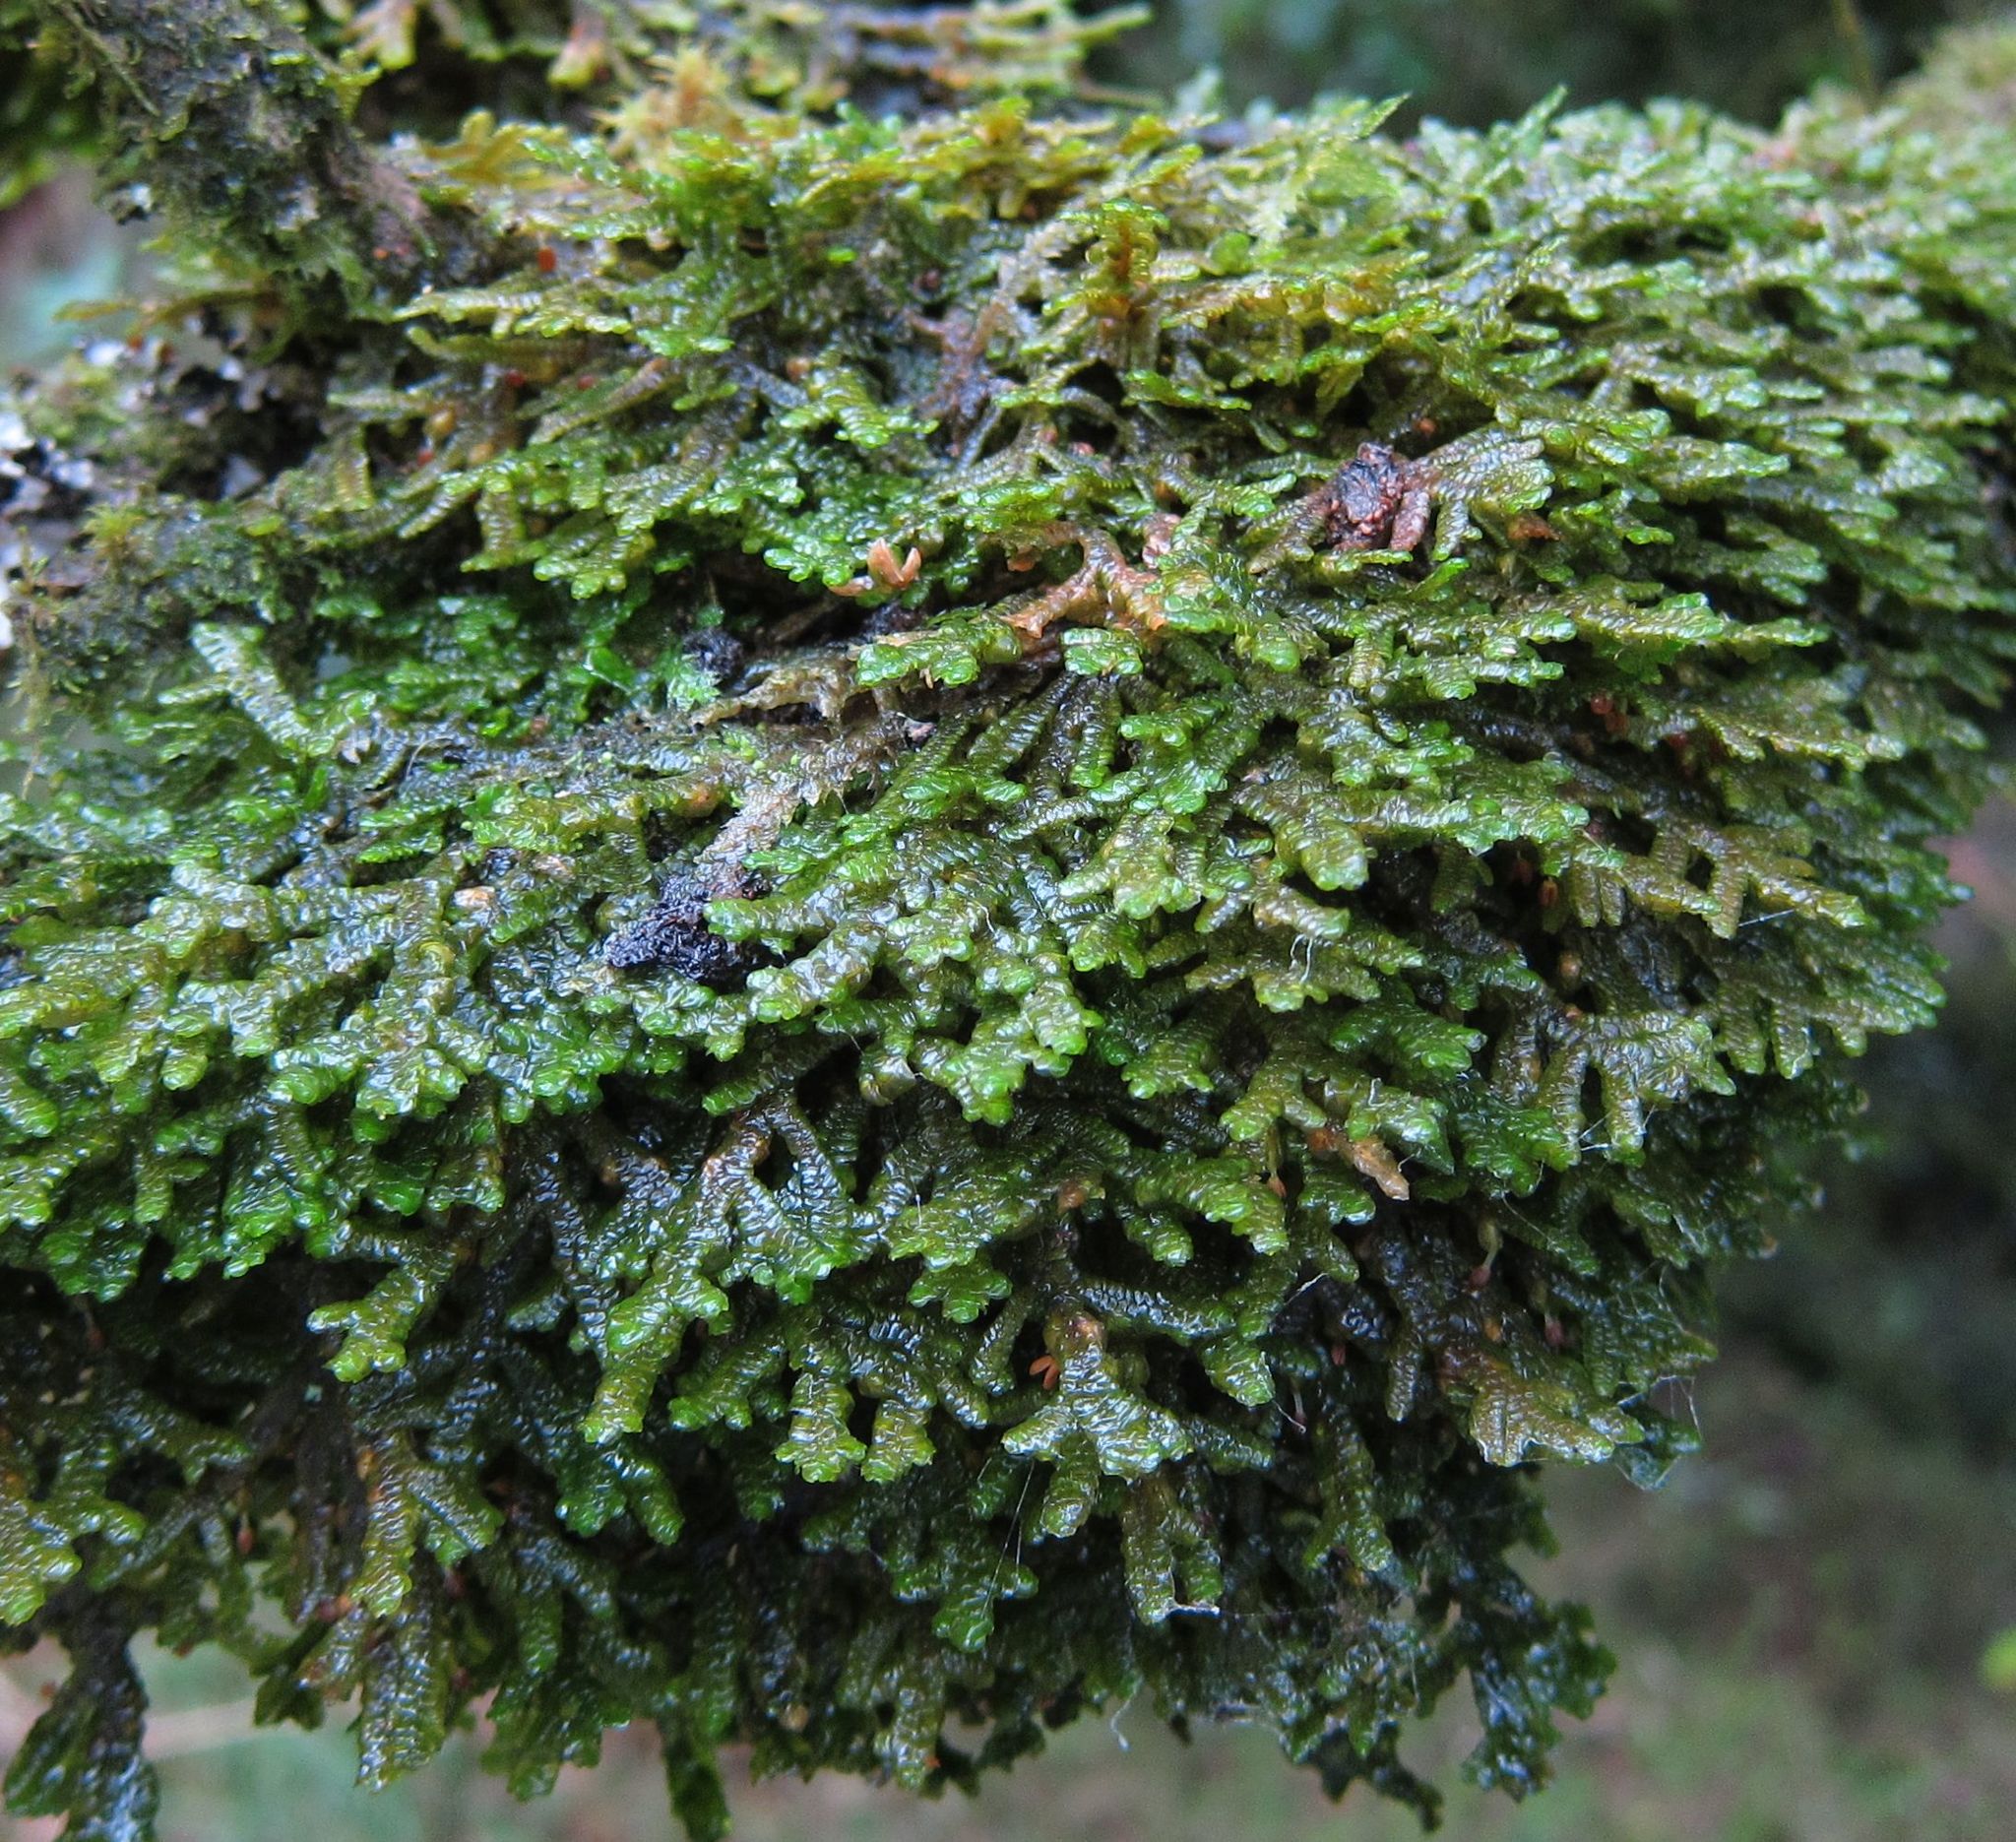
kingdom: Plantae
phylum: Marchantiophyta
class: Jungermanniopsida
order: Porellales
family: Porellaceae
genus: Porella
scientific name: Porella elegantula
